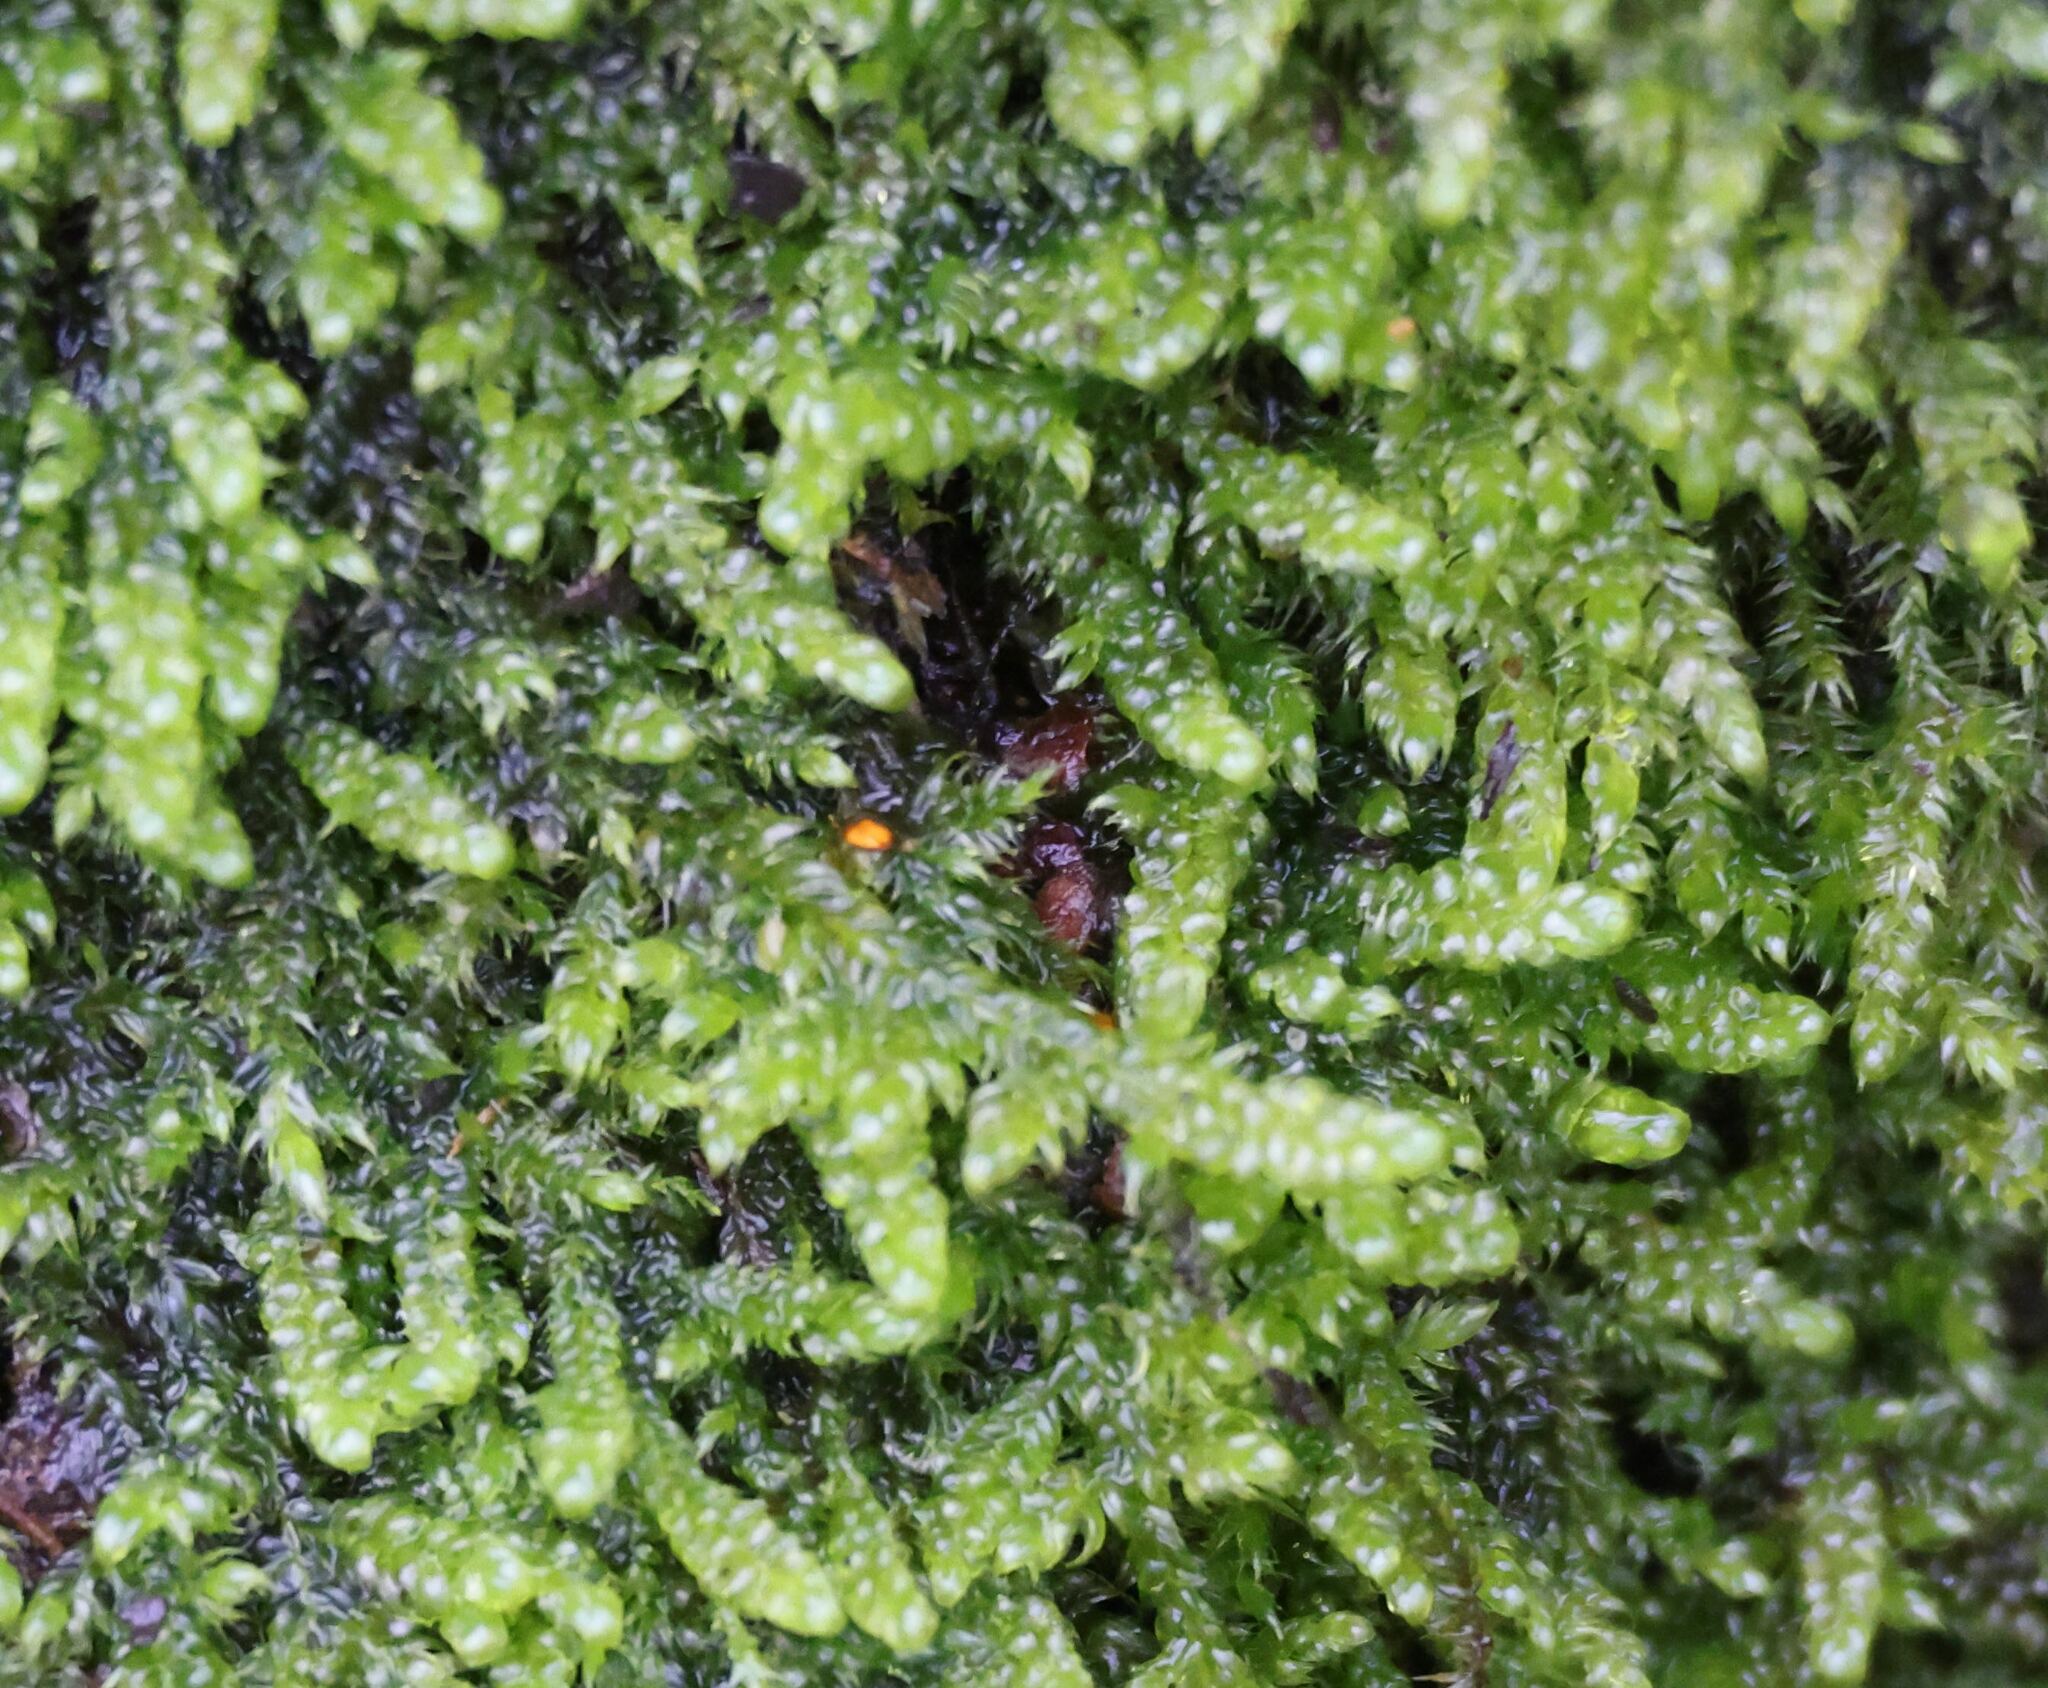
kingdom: Plantae
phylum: Bryophyta
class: Bryopsida
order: Hypnales
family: Hypnaceae
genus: Hypnum
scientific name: Hypnum cupressiforme
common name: Cypress-leaved plait-moss
